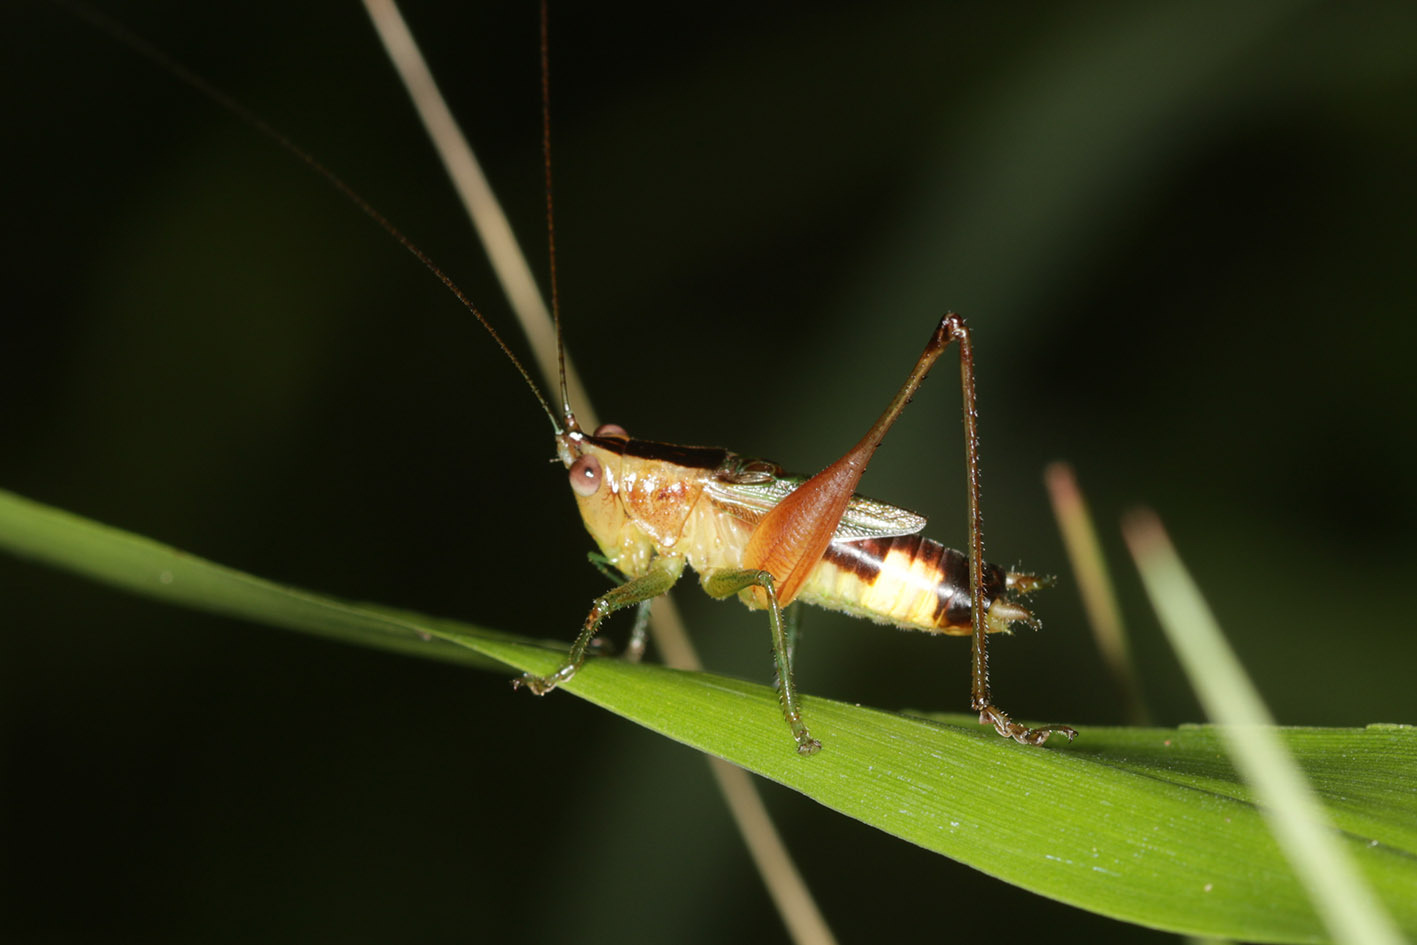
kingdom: Animalia
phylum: Arthropoda
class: Insecta
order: Orthoptera
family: Tettigoniidae
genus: Conocephalus
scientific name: Conocephalus versicolor
